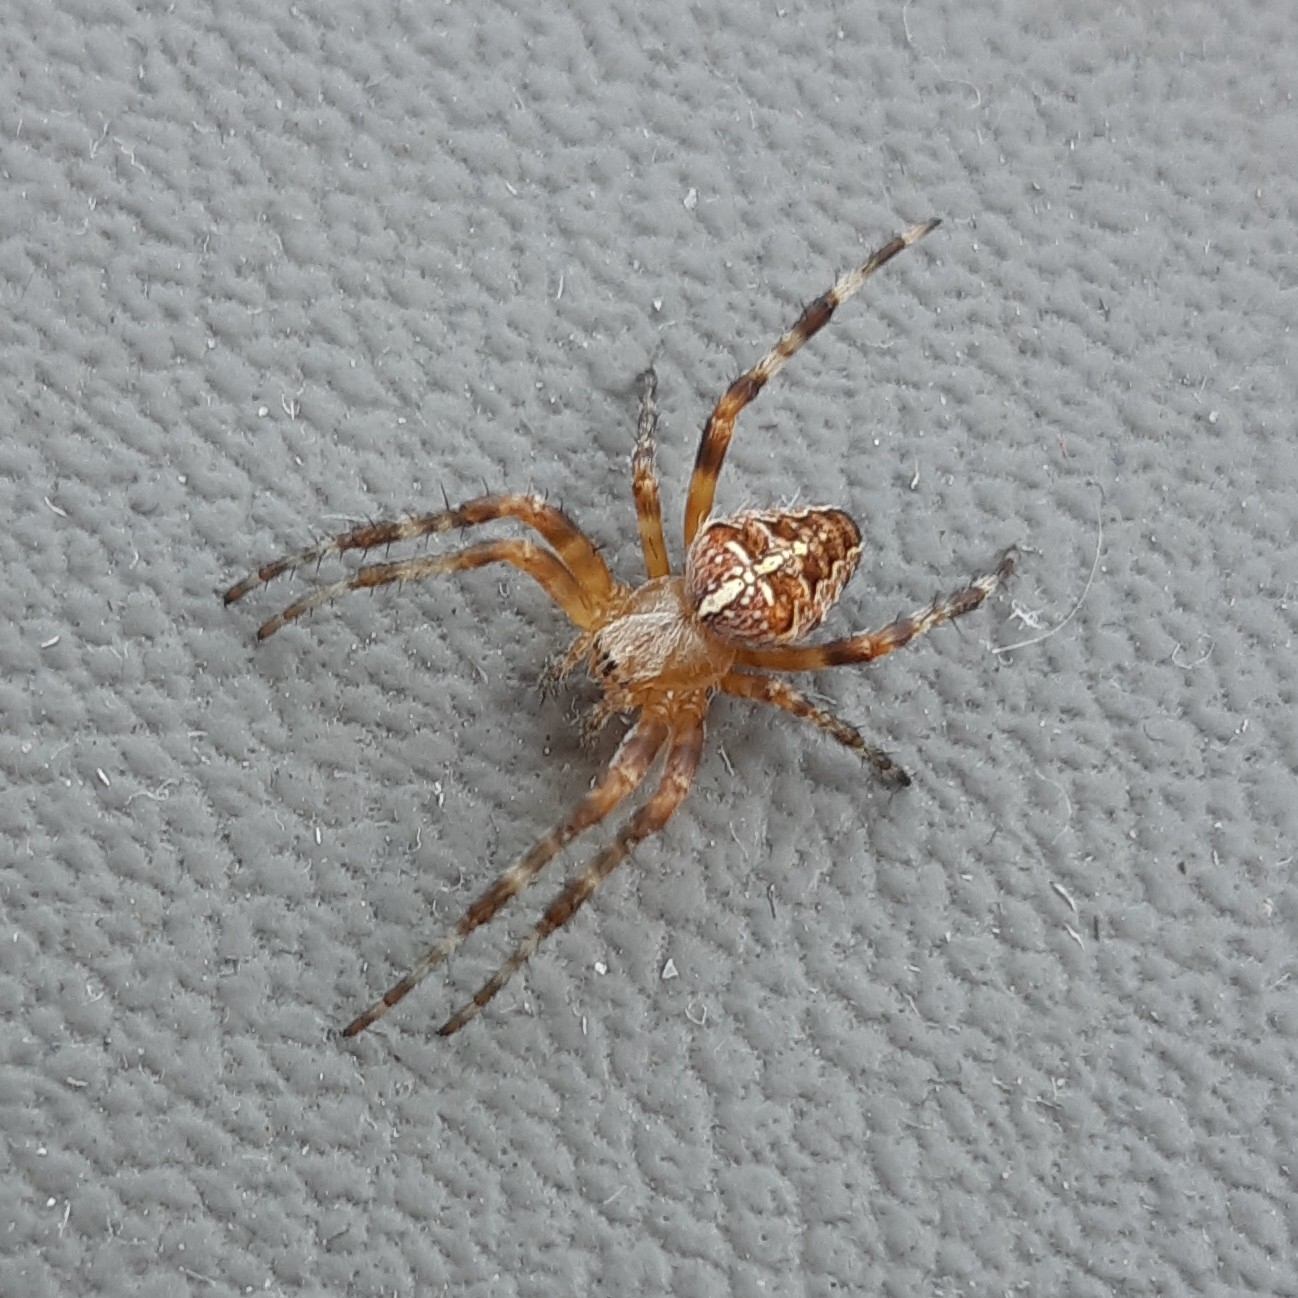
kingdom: Animalia
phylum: Arthropoda
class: Arachnida
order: Araneae
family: Araneidae
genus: Araneus
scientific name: Araneus diadematus
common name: Cross orbweaver
